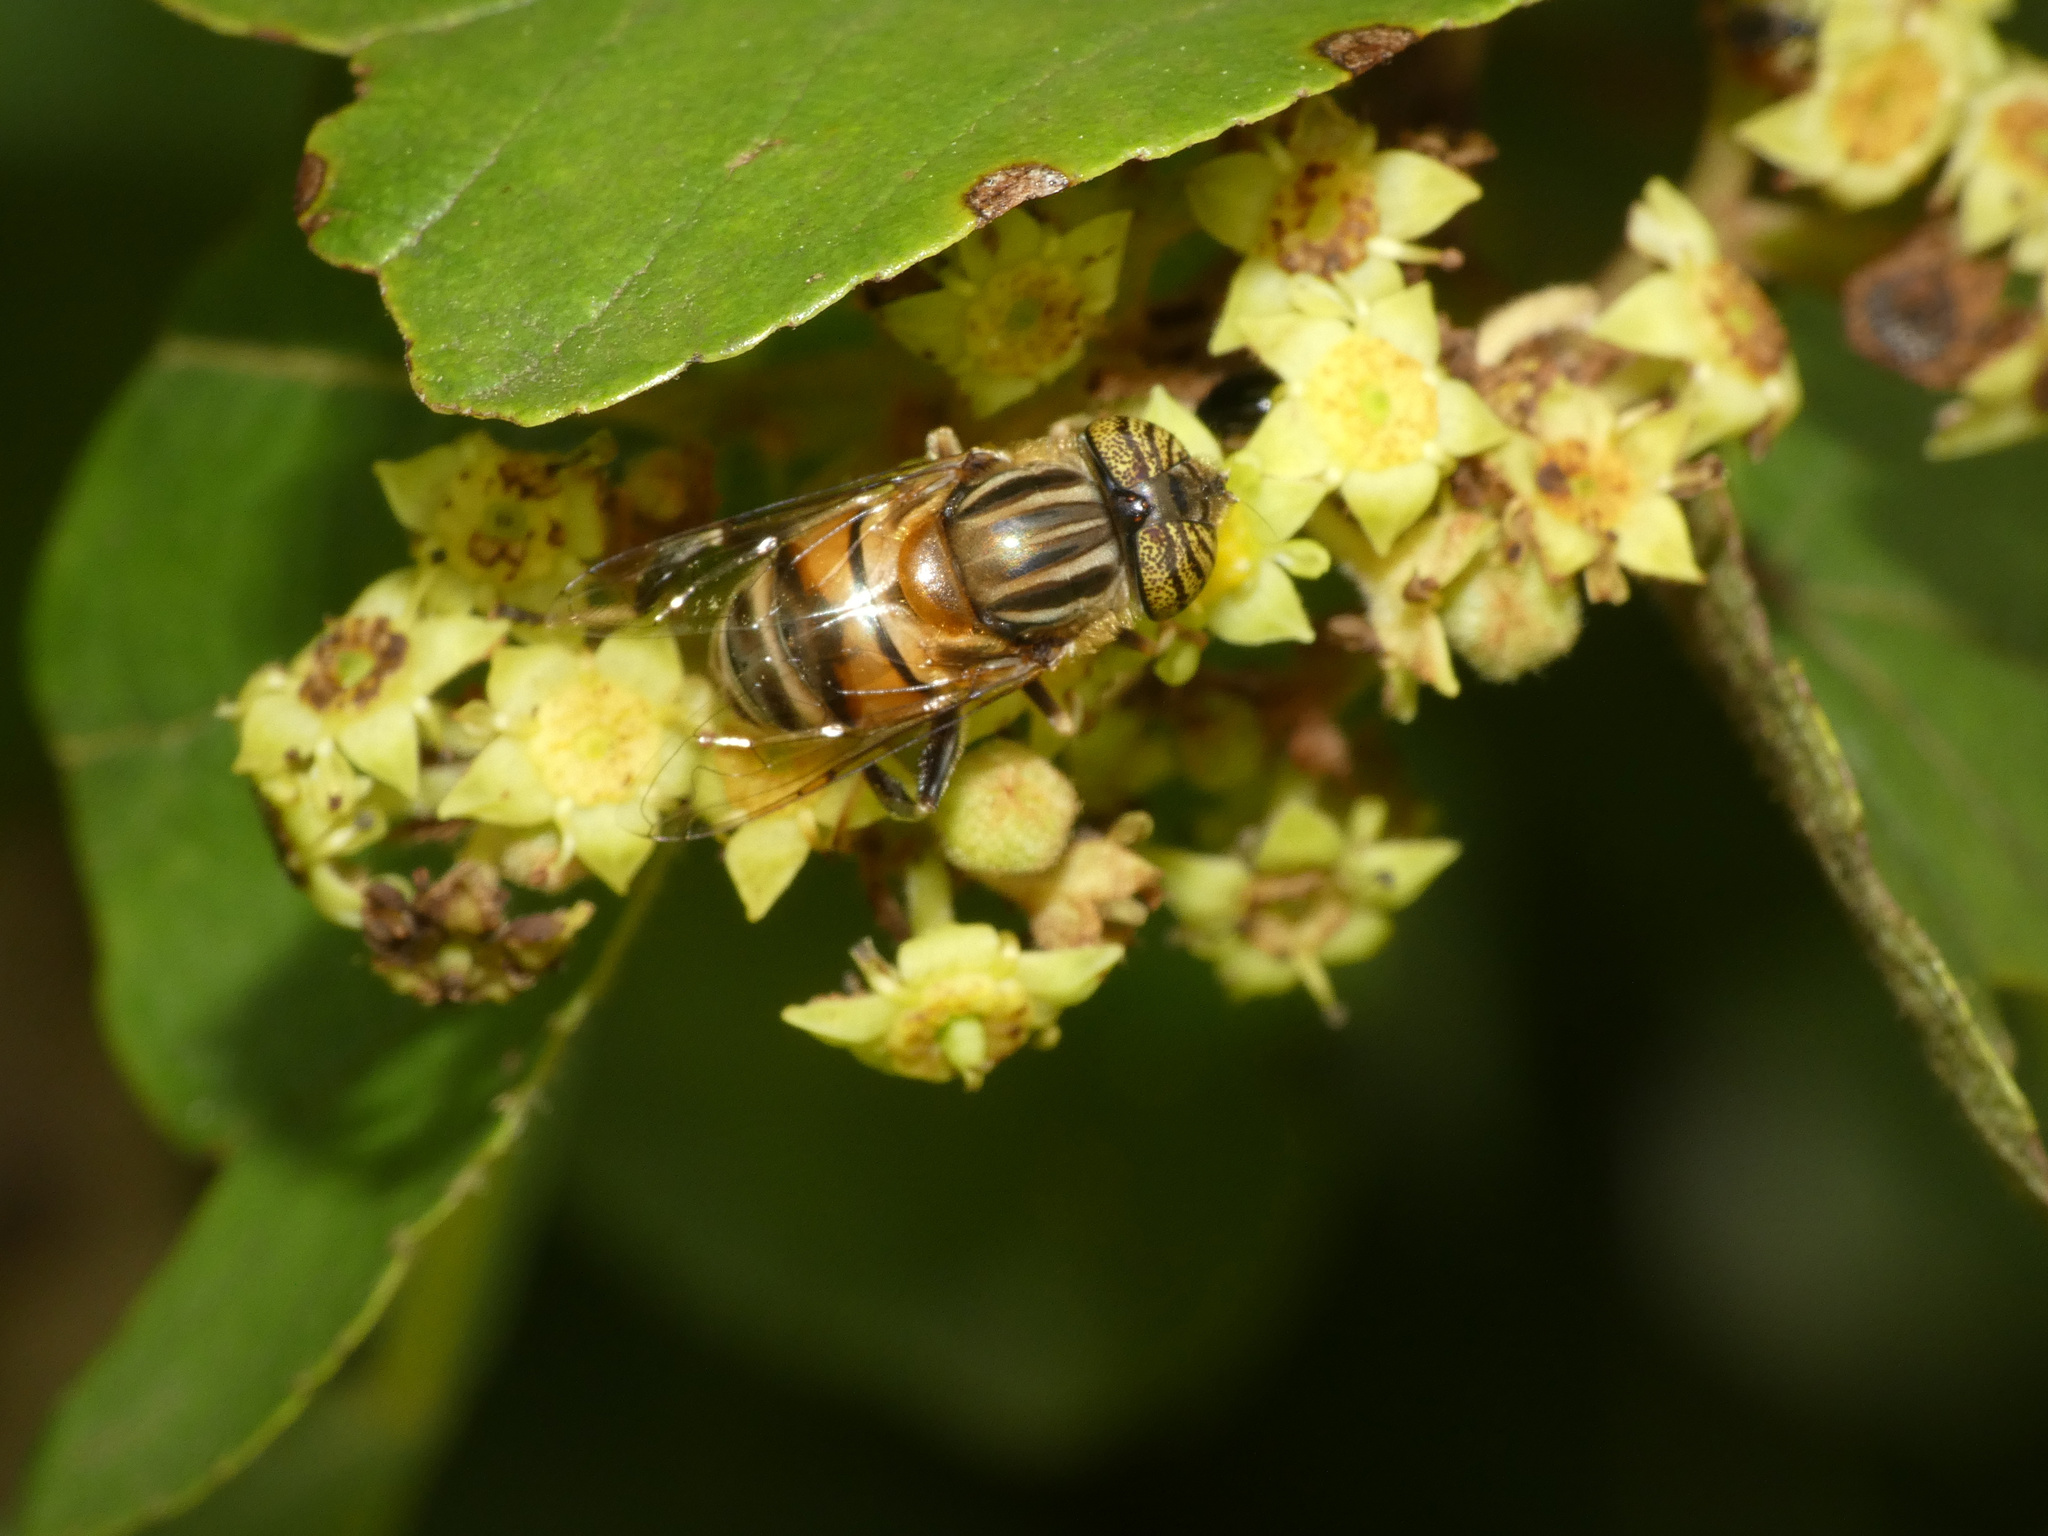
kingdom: Animalia
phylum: Arthropoda
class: Insecta
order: Diptera
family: Syrphidae
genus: Eristalinus
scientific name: Eristalinus quinquelineatus
